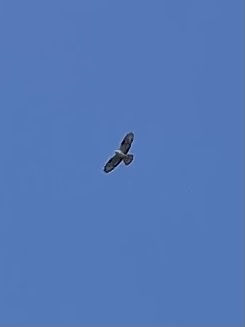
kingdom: Animalia
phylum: Chordata
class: Aves
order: Accipitriformes
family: Accipitridae
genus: Buteo
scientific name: Buteo buteo
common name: Common buzzard
